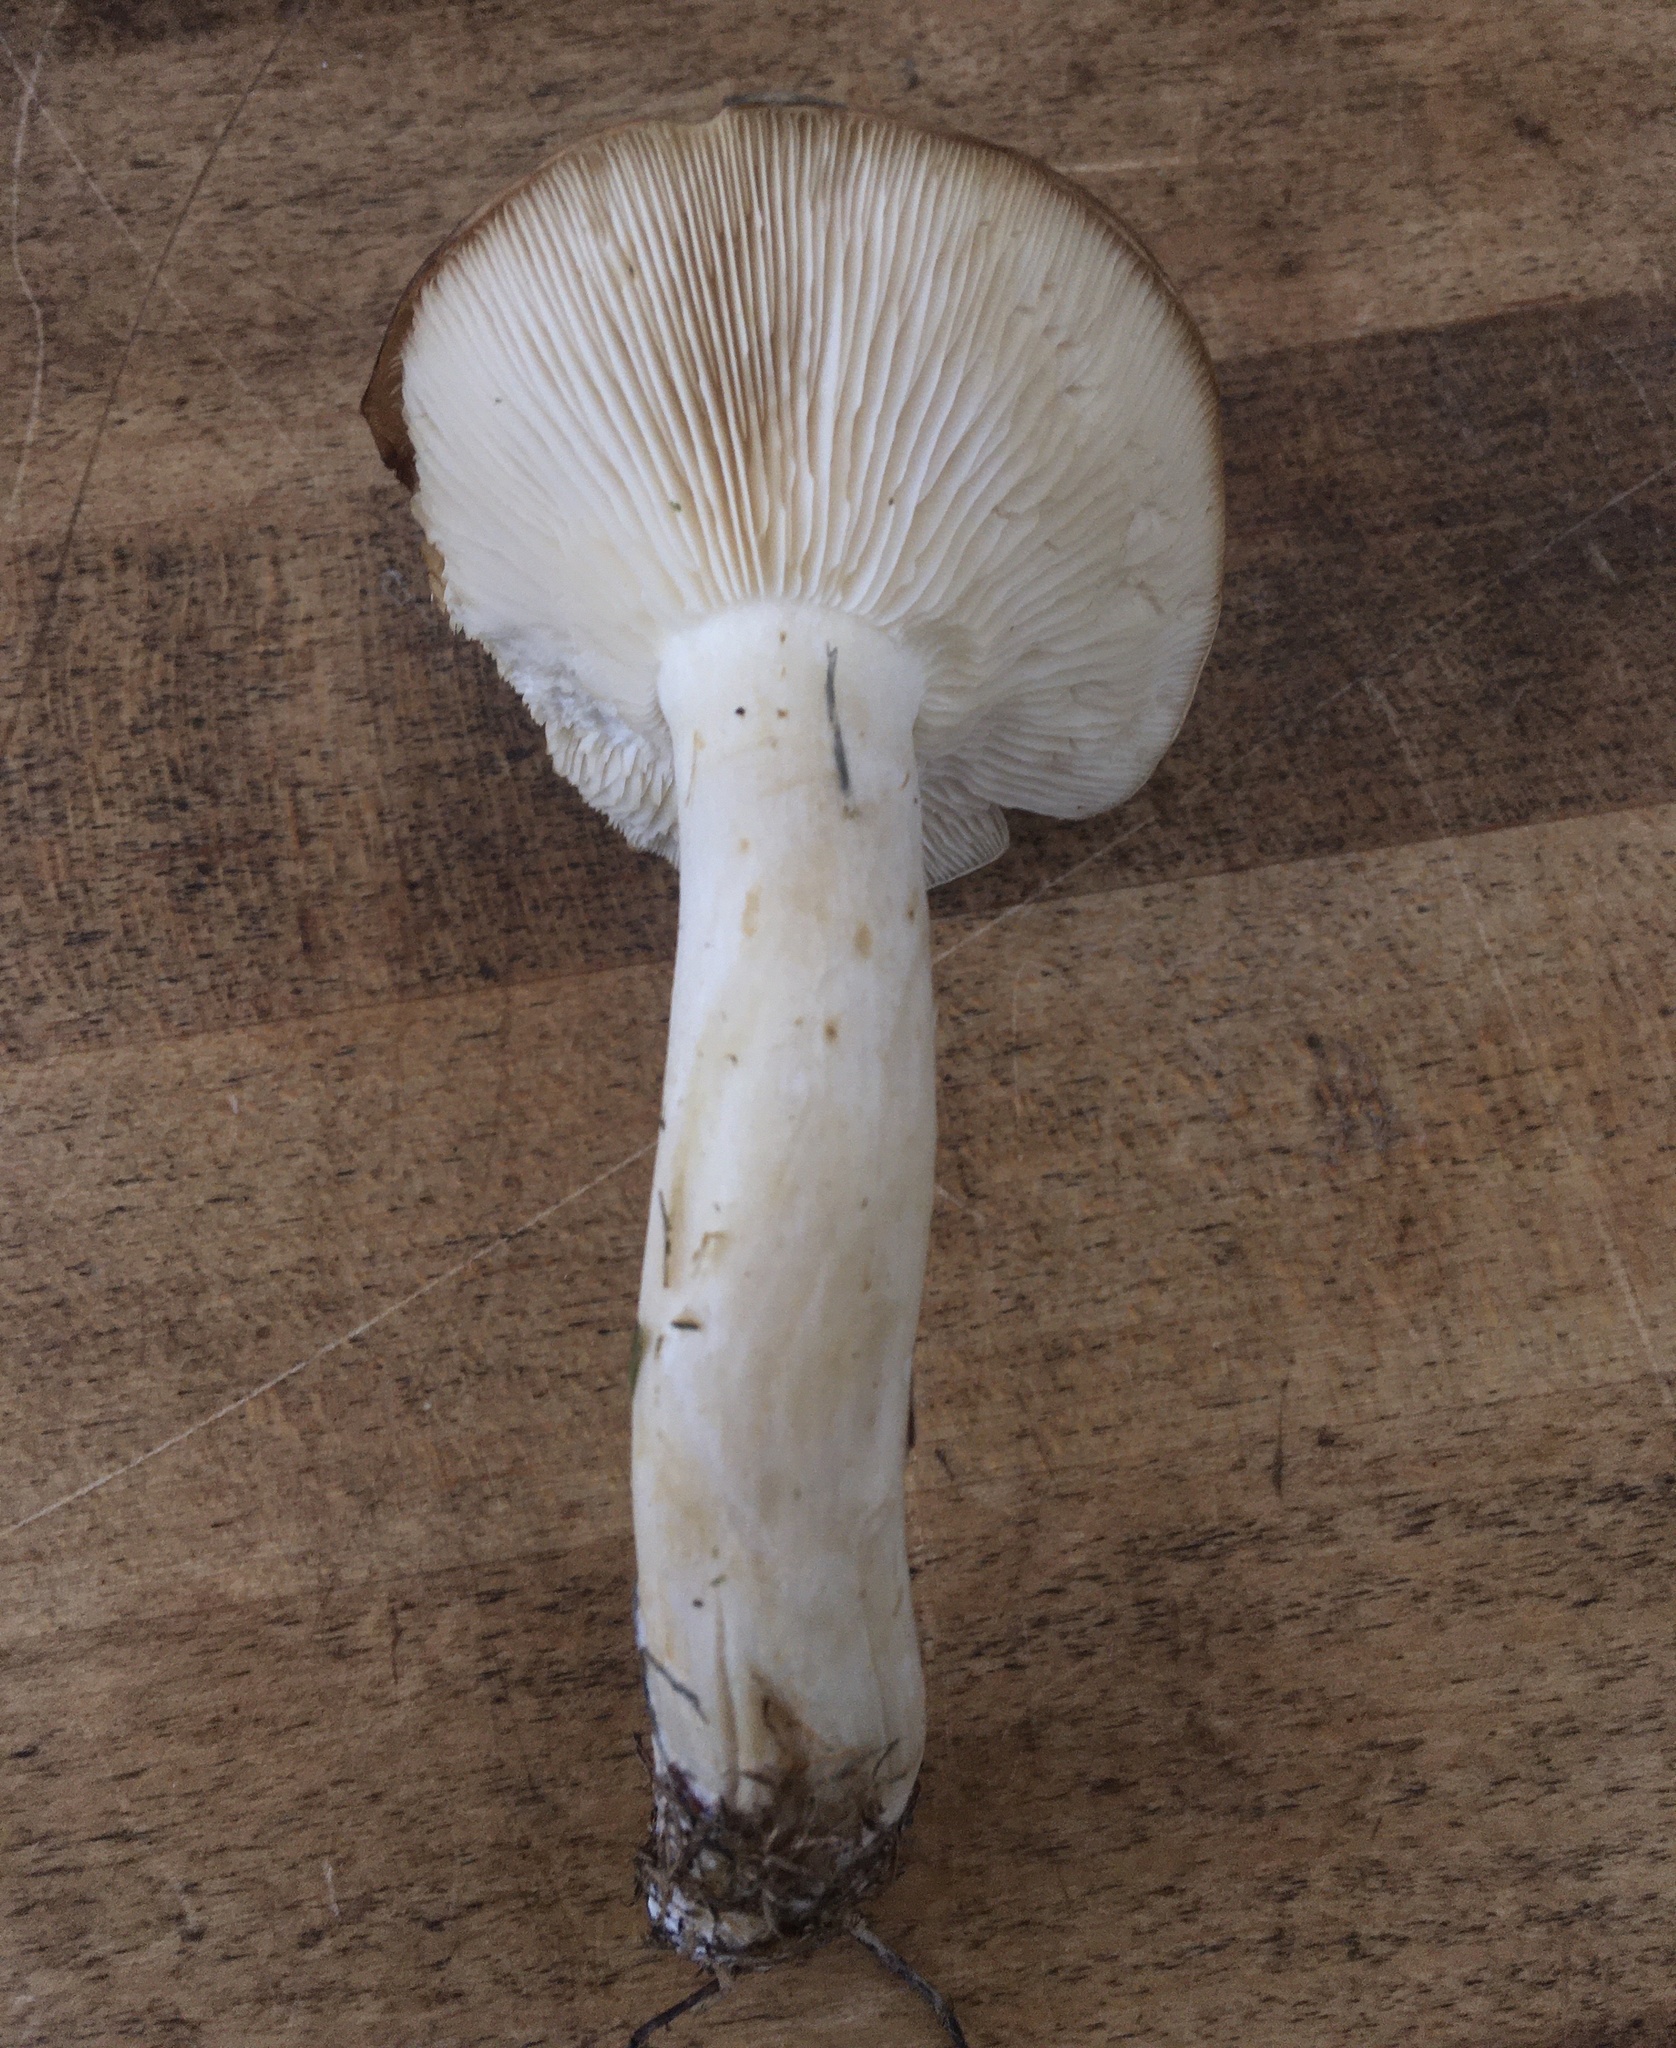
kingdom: Fungi
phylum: Basidiomycota
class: Agaricomycetes
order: Agaricales
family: Lyophyllaceae
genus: Lyophyllum
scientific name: Lyophyllum decastes
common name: Clustered domecap
